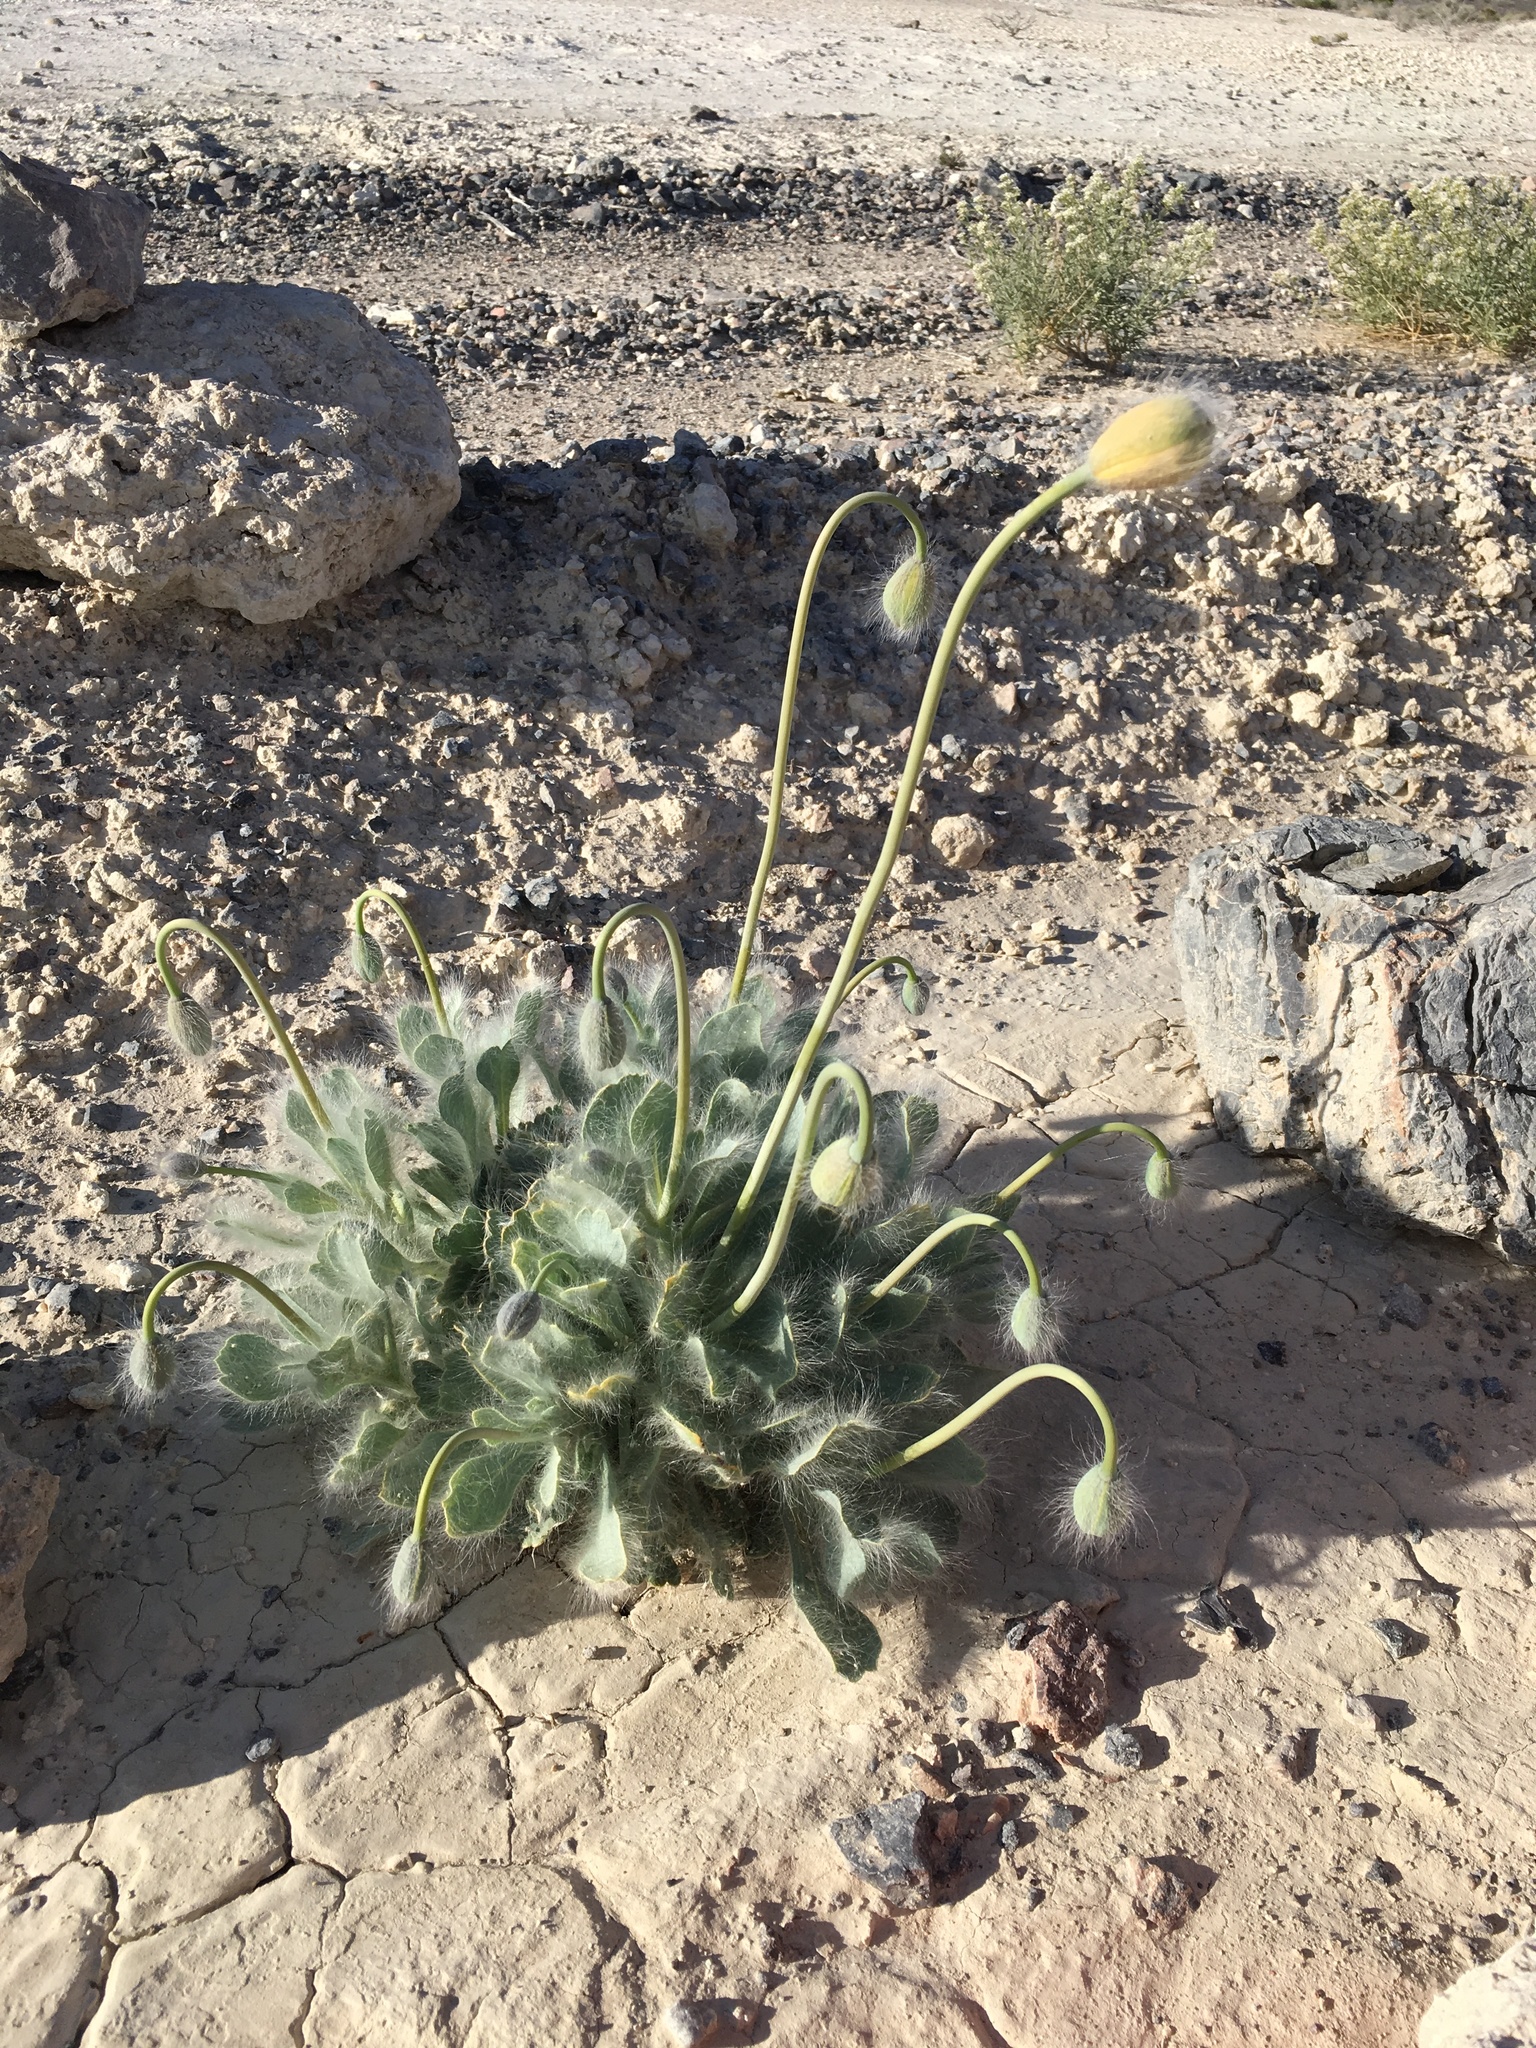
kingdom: Plantae
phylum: Tracheophyta
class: Magnoliopsida
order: Ranunculales
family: Papaveraceae
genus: Arctomecon
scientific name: Arctomecon merriamii
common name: White bear-poppy
